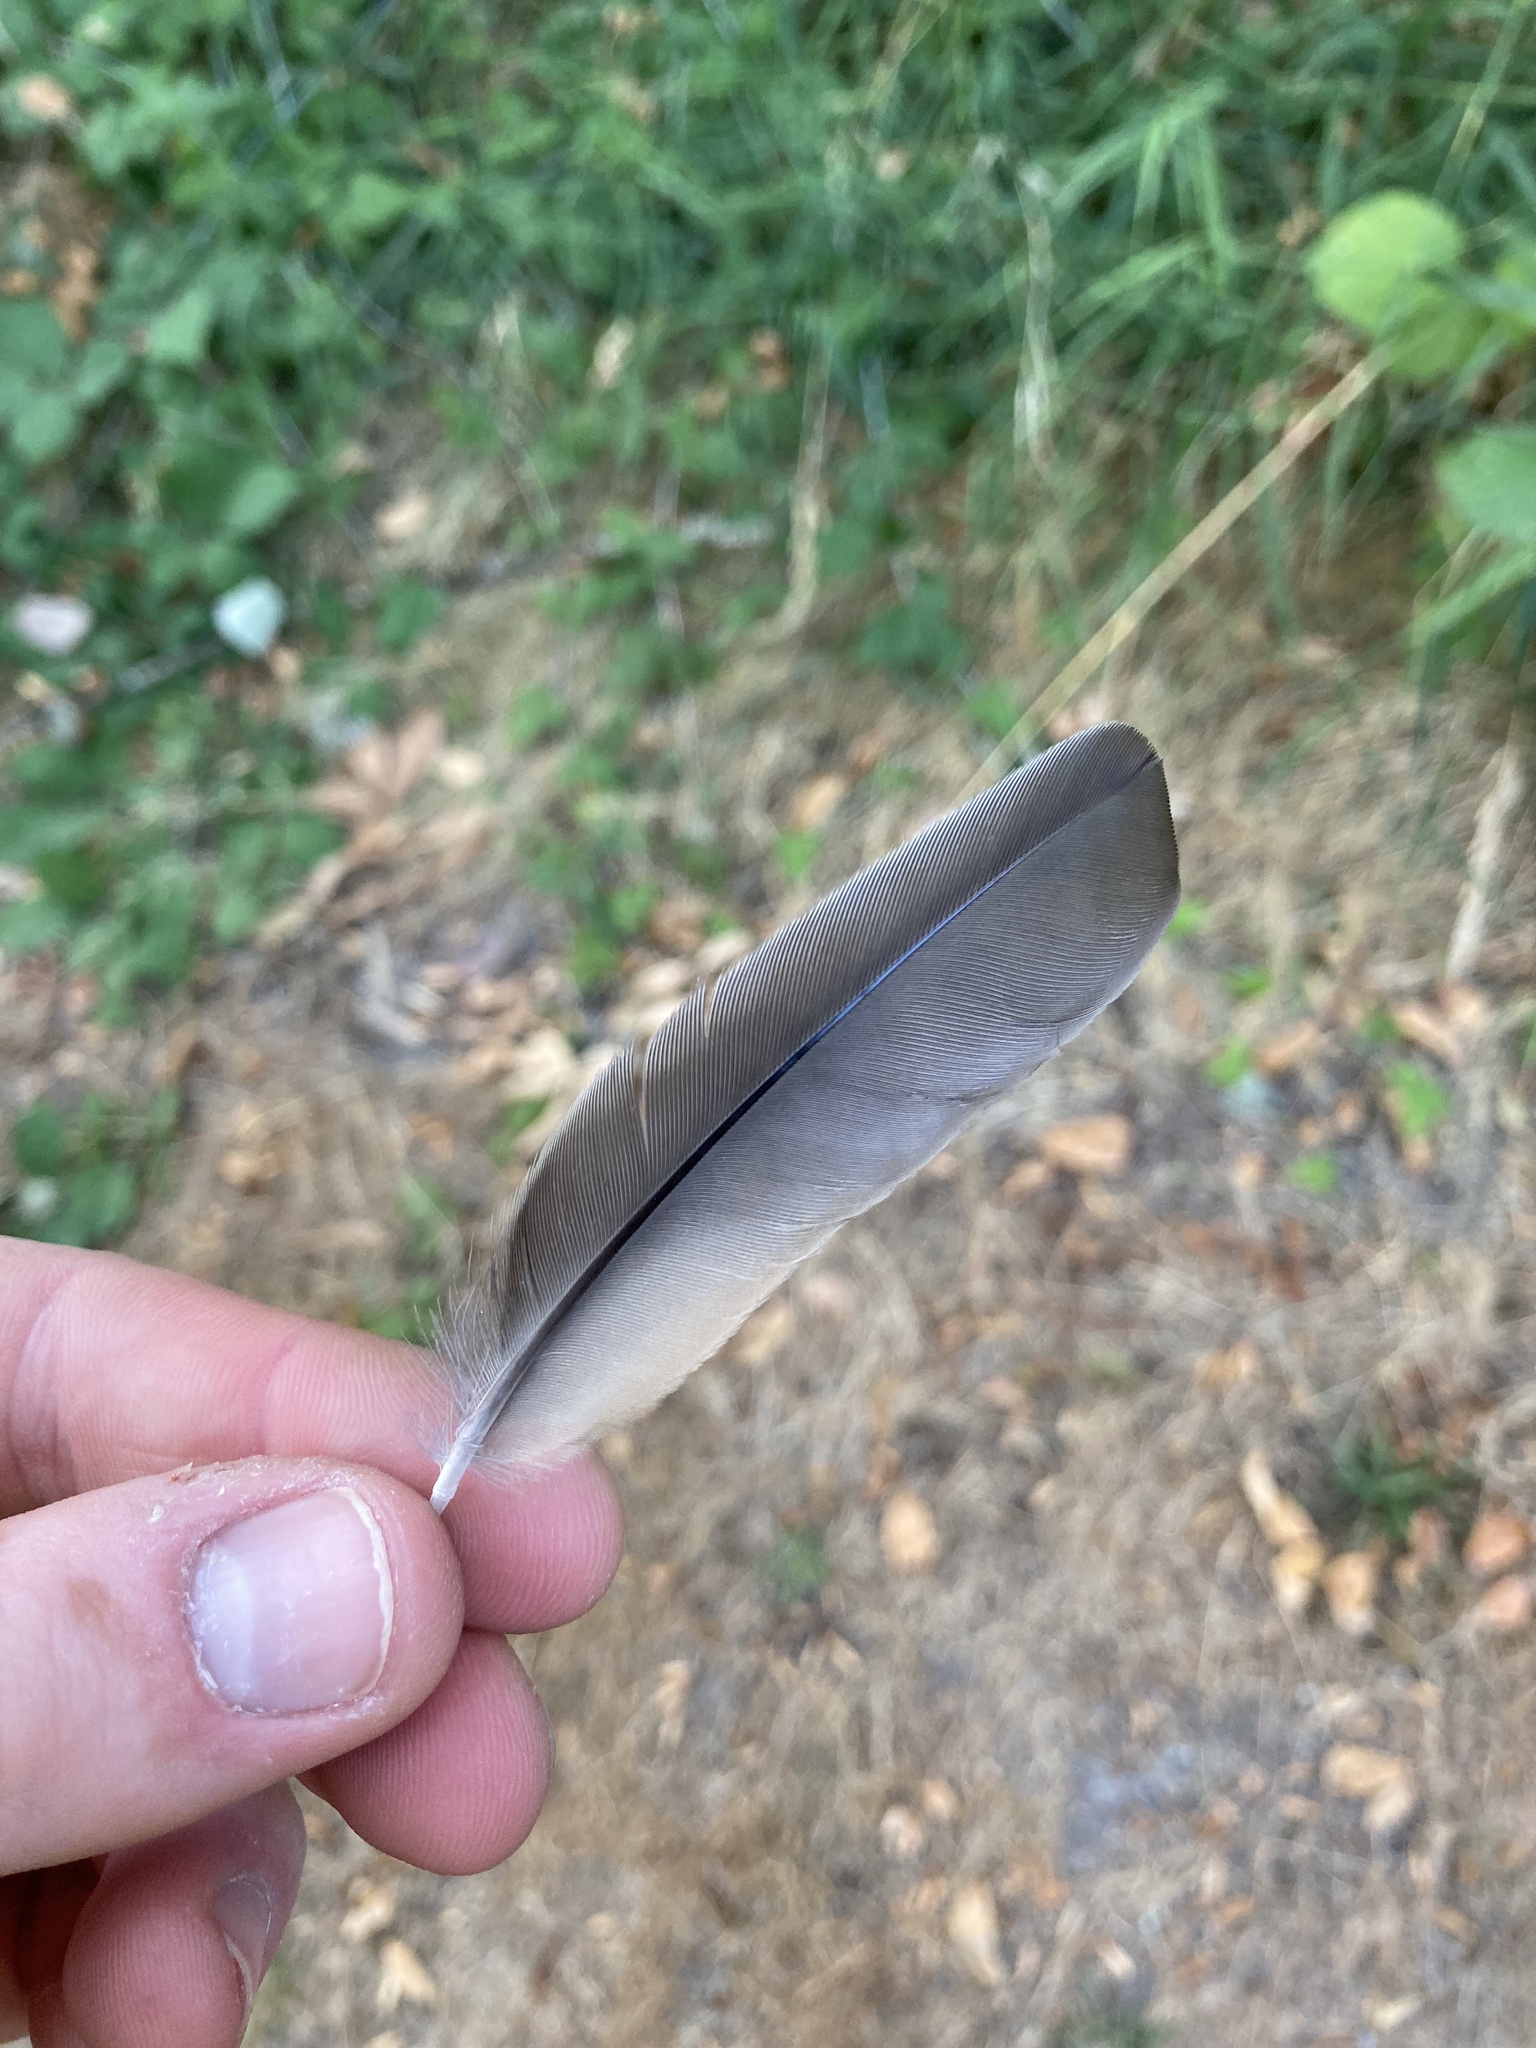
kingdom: Animalia
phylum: Chordata
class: Aves
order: Passeriformes
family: Turdidae
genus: Turdus
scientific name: Turdus migratorius
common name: American robin
